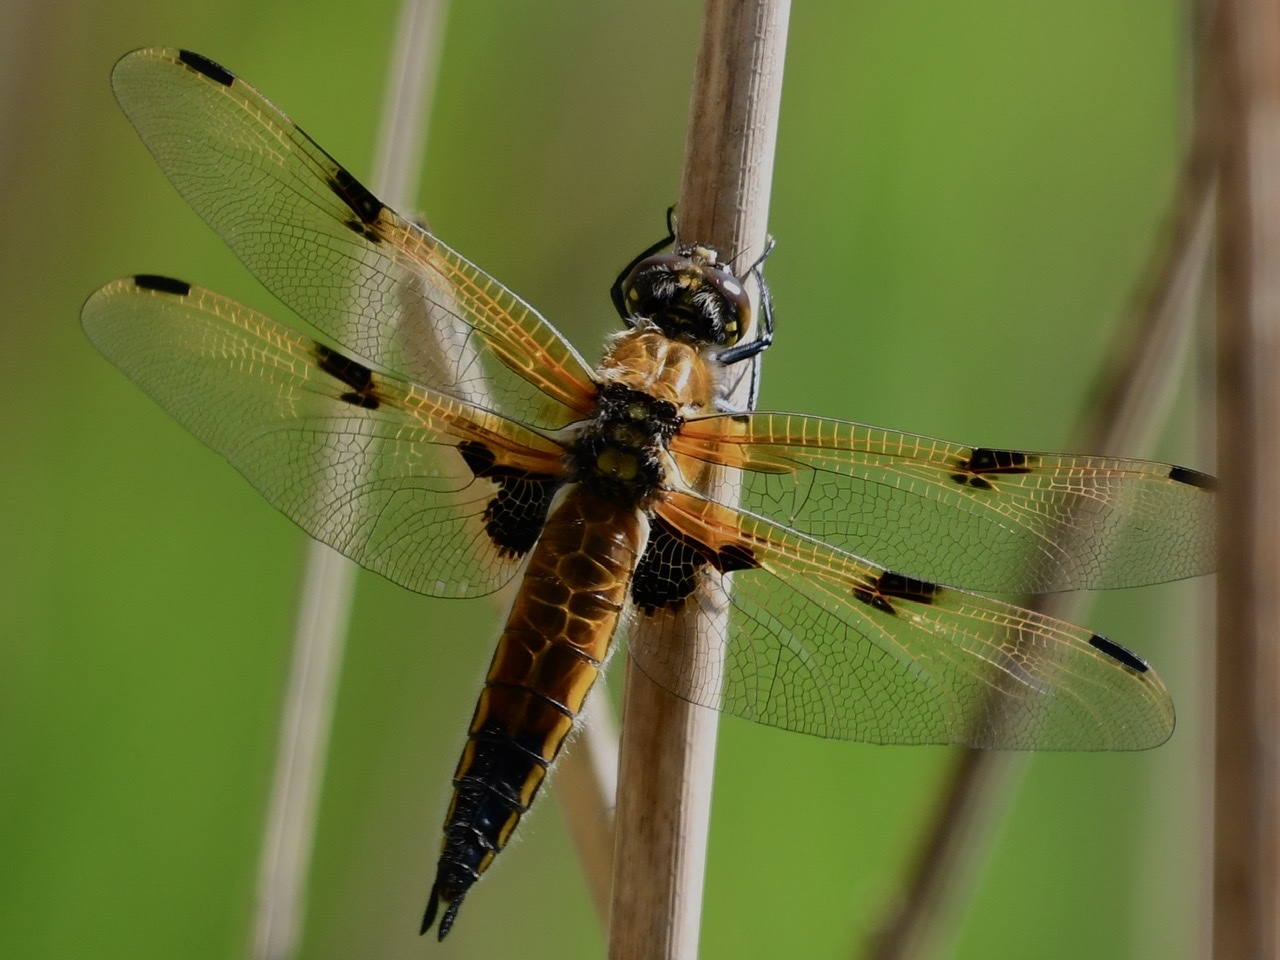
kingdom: Animalia
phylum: Arthropoda
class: Insecta
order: Odonata
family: Libellulidae
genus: Libellula
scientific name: Libellula quadrimaculata
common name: Four-spotted chaser
